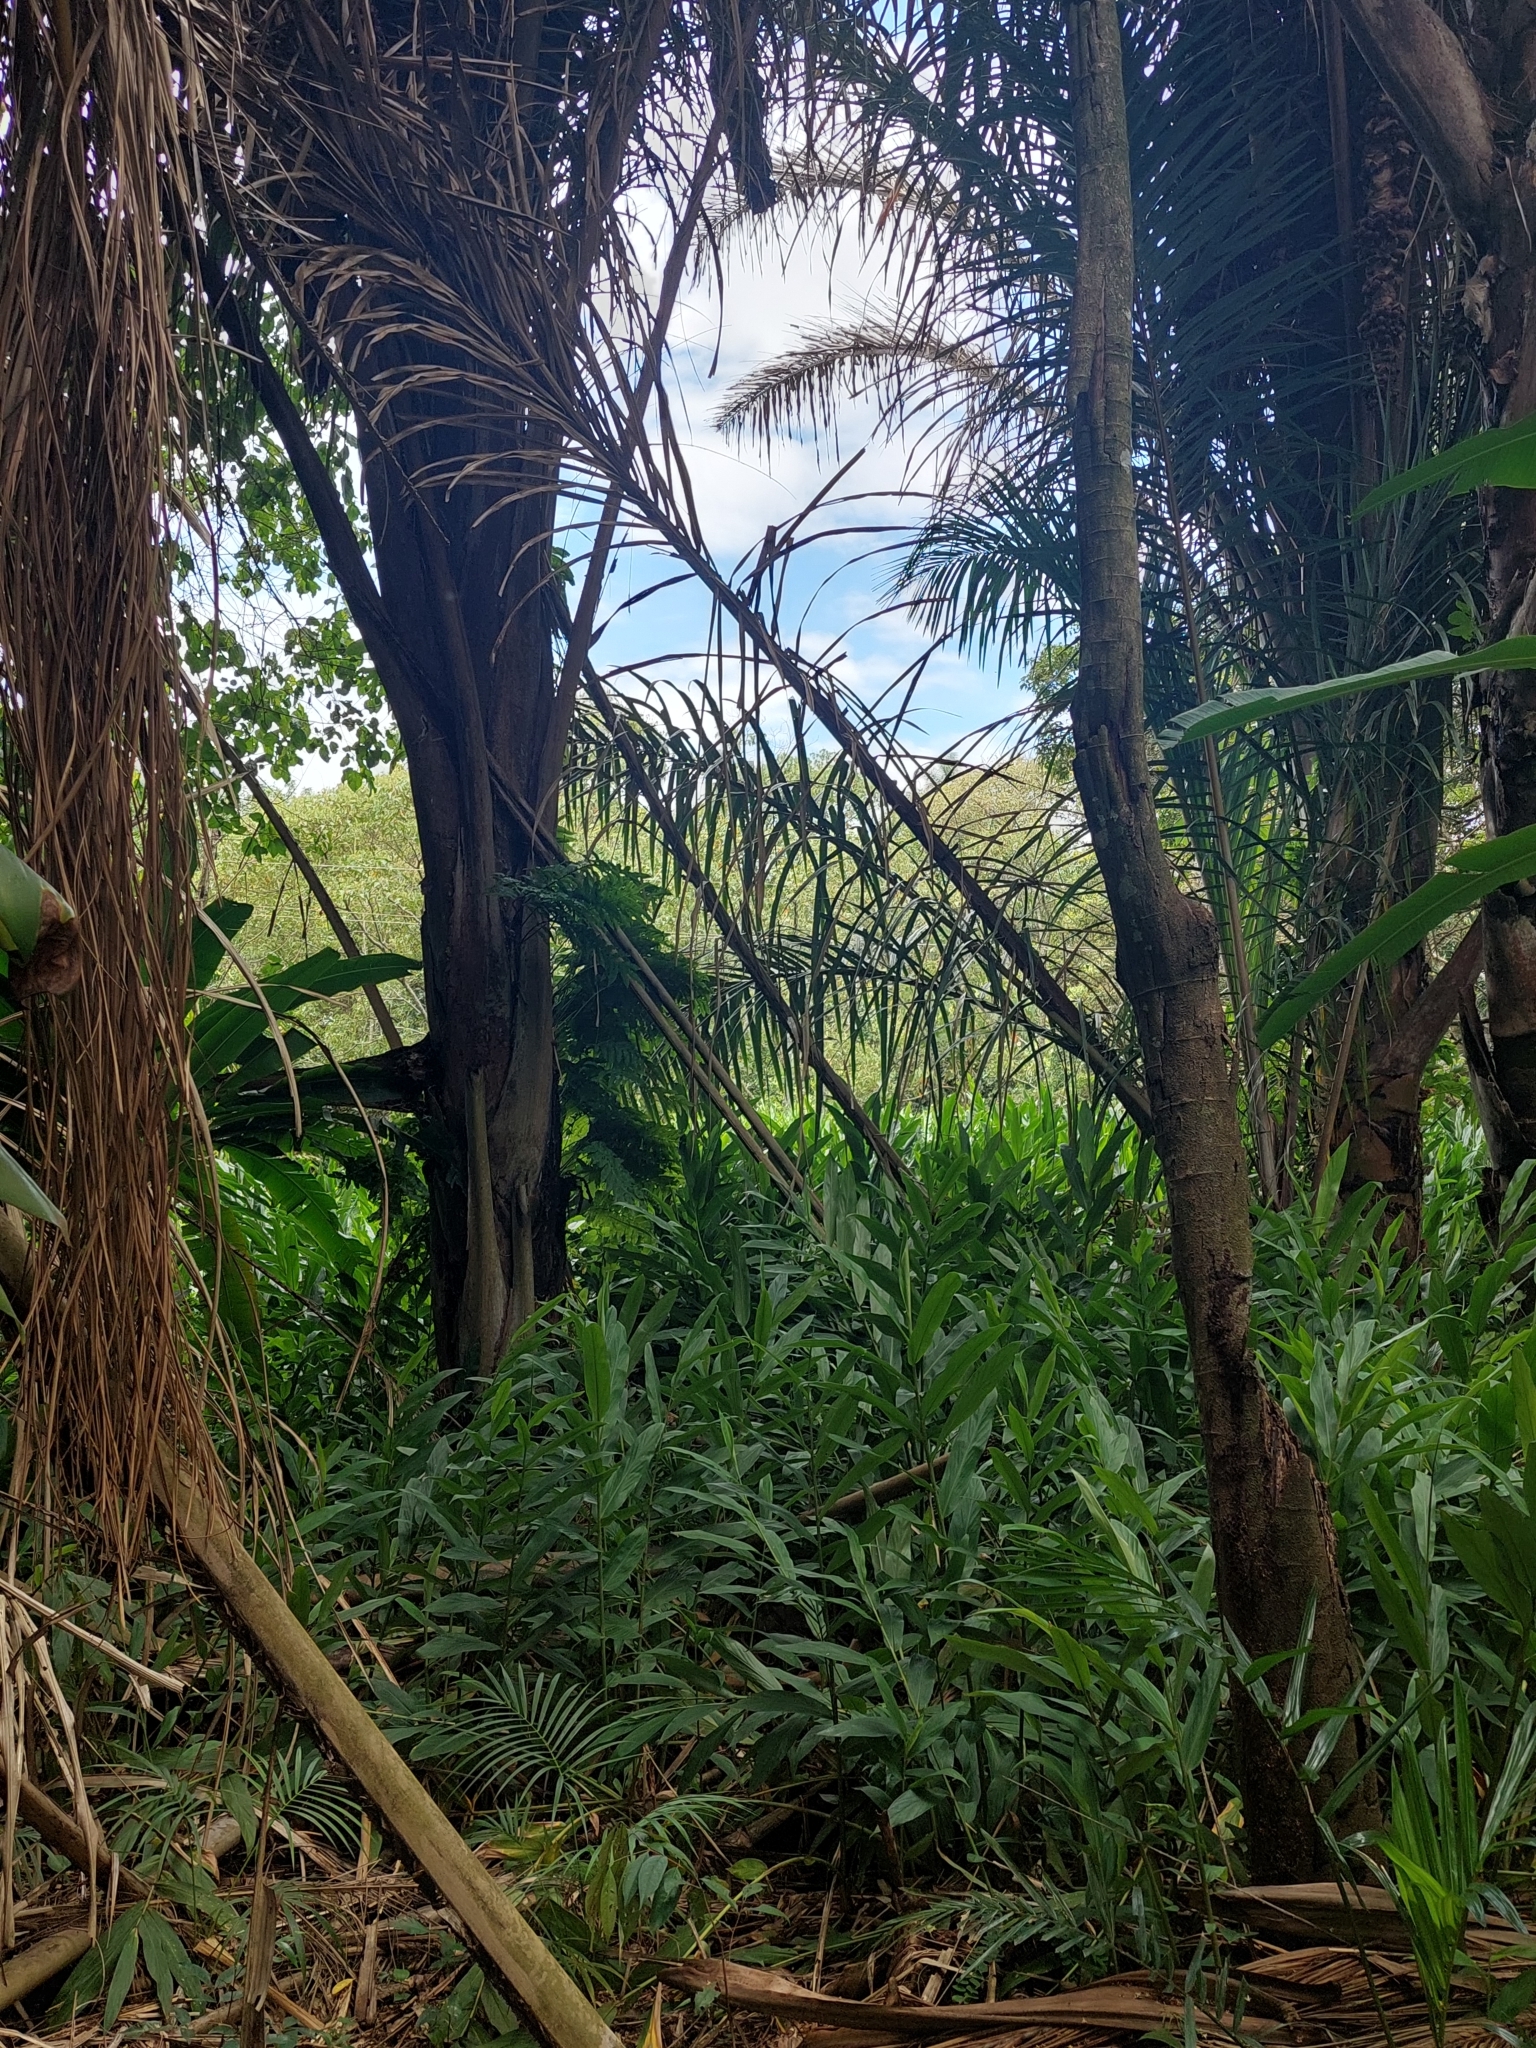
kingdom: Plantae
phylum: Tracheophyta
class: Liliopsida
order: Zingiberales
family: Zingiberaceae
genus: Hedychium
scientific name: Hedychium coronarium
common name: White garland-lily
